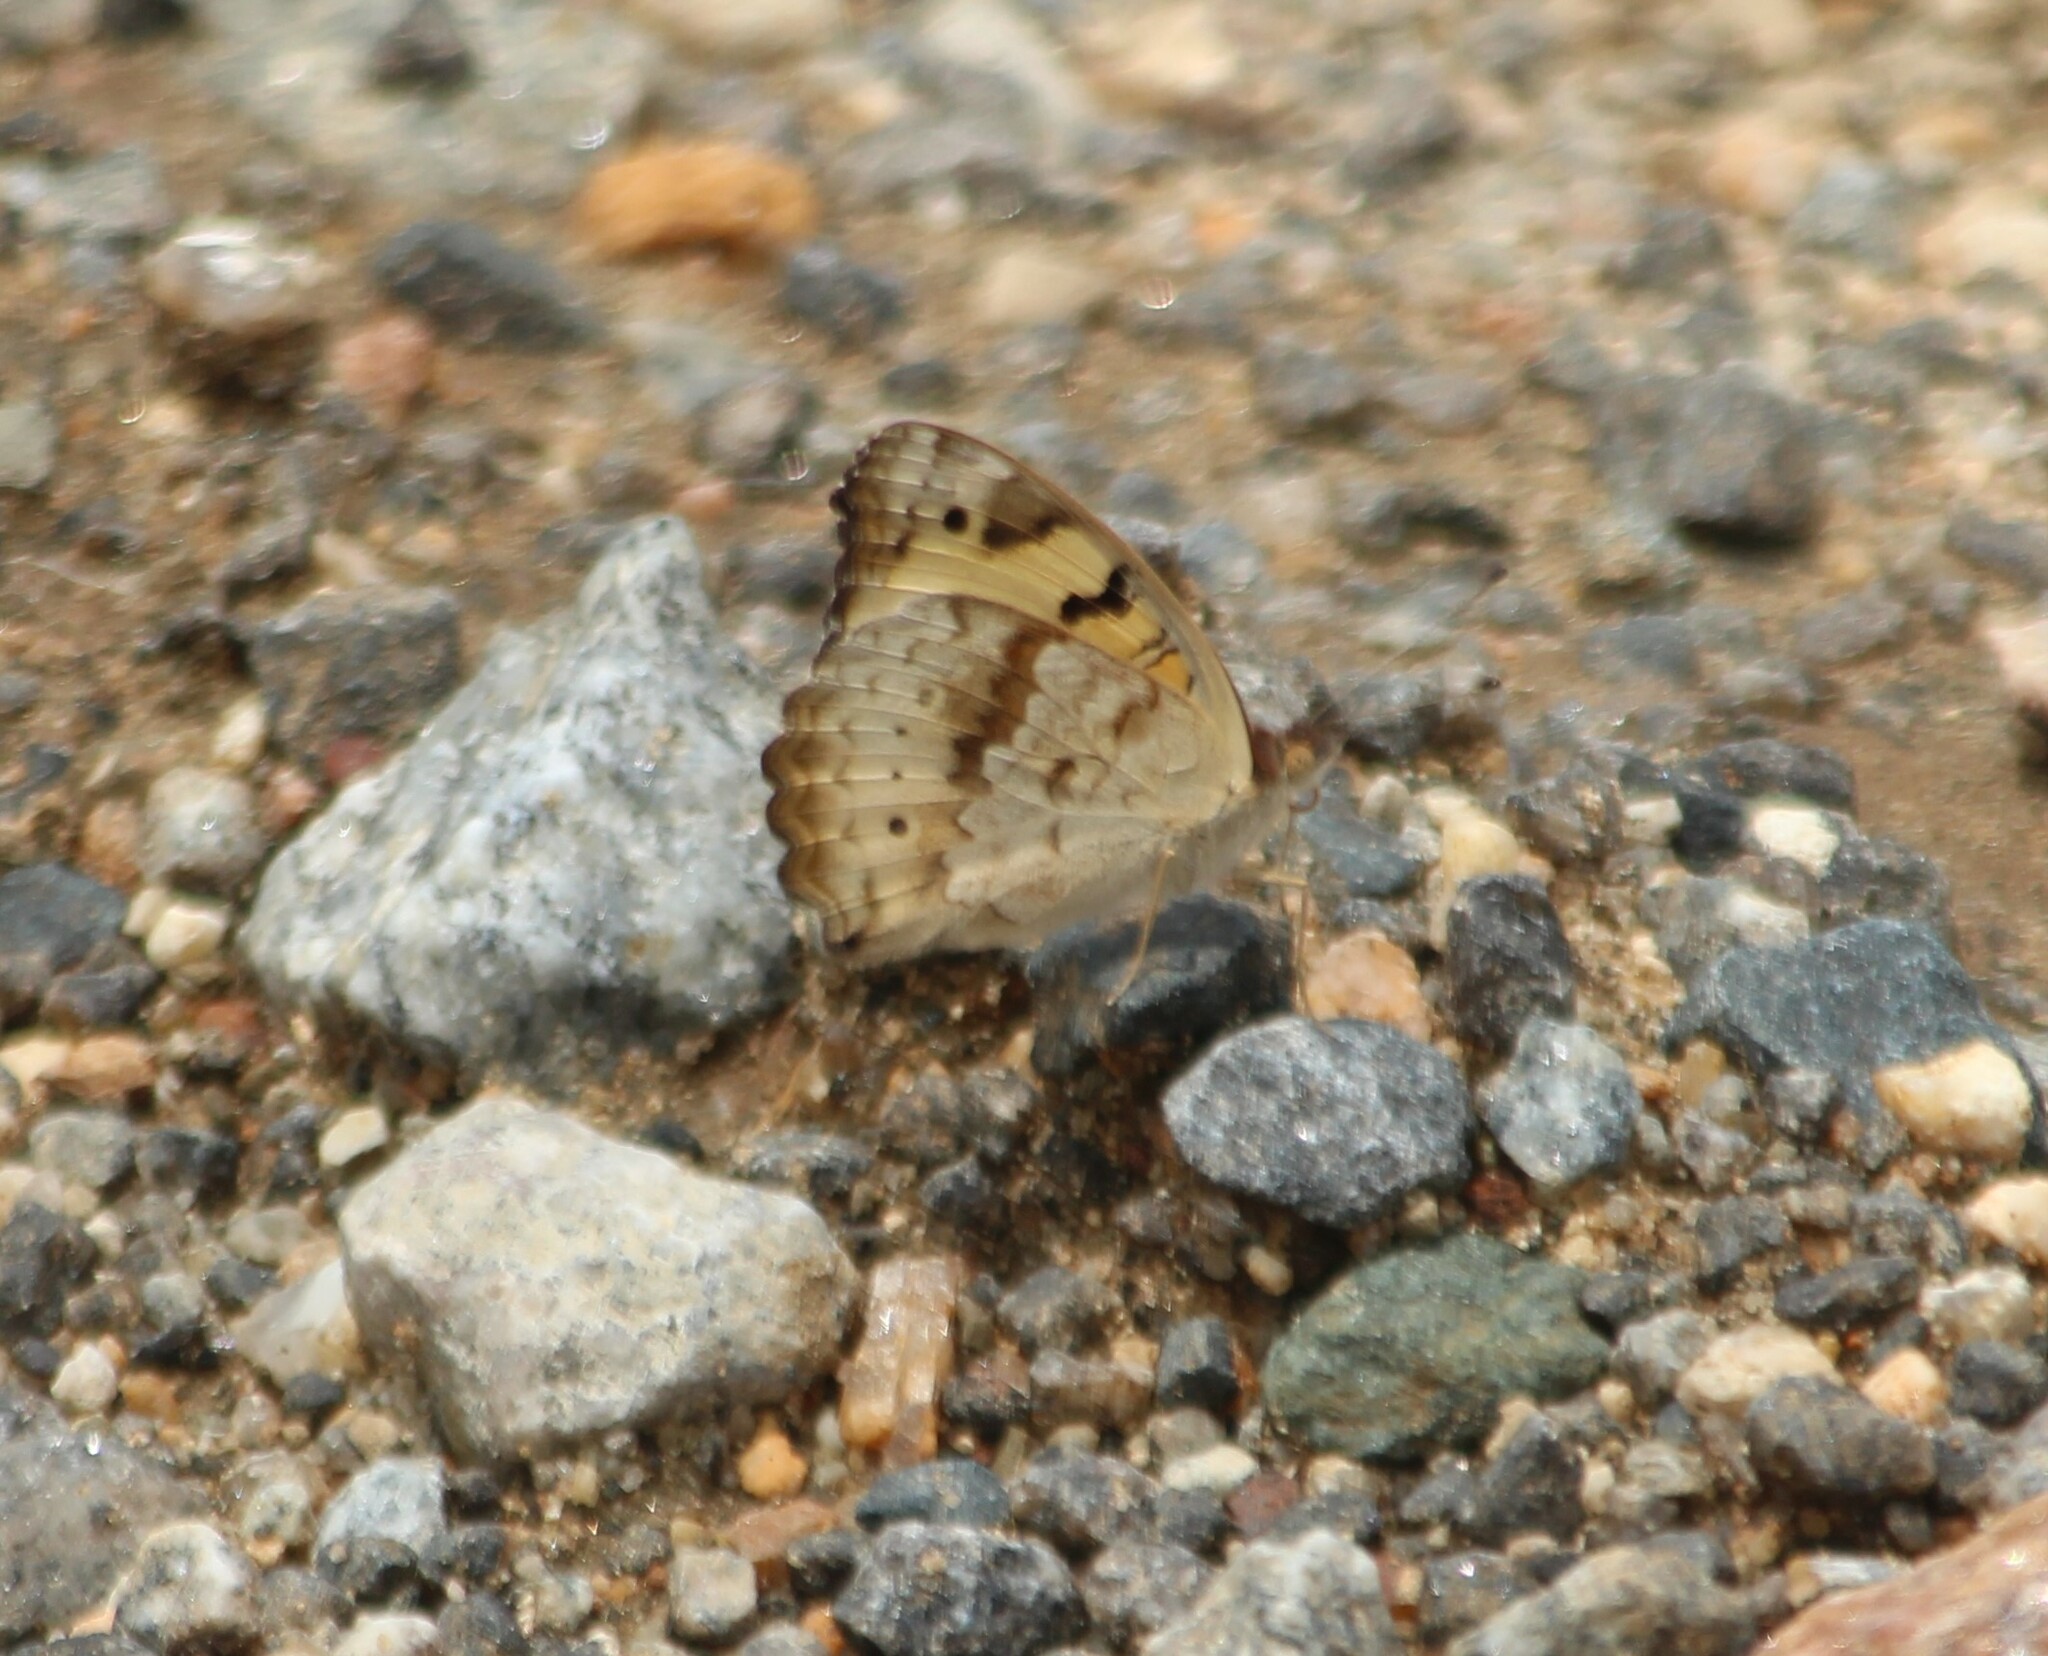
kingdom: Animalia
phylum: Arthropoda
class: Insecta
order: Lepidoptera
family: Nymphalidae
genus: Junonia
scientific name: Junonia hierta
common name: Yellow pansy
